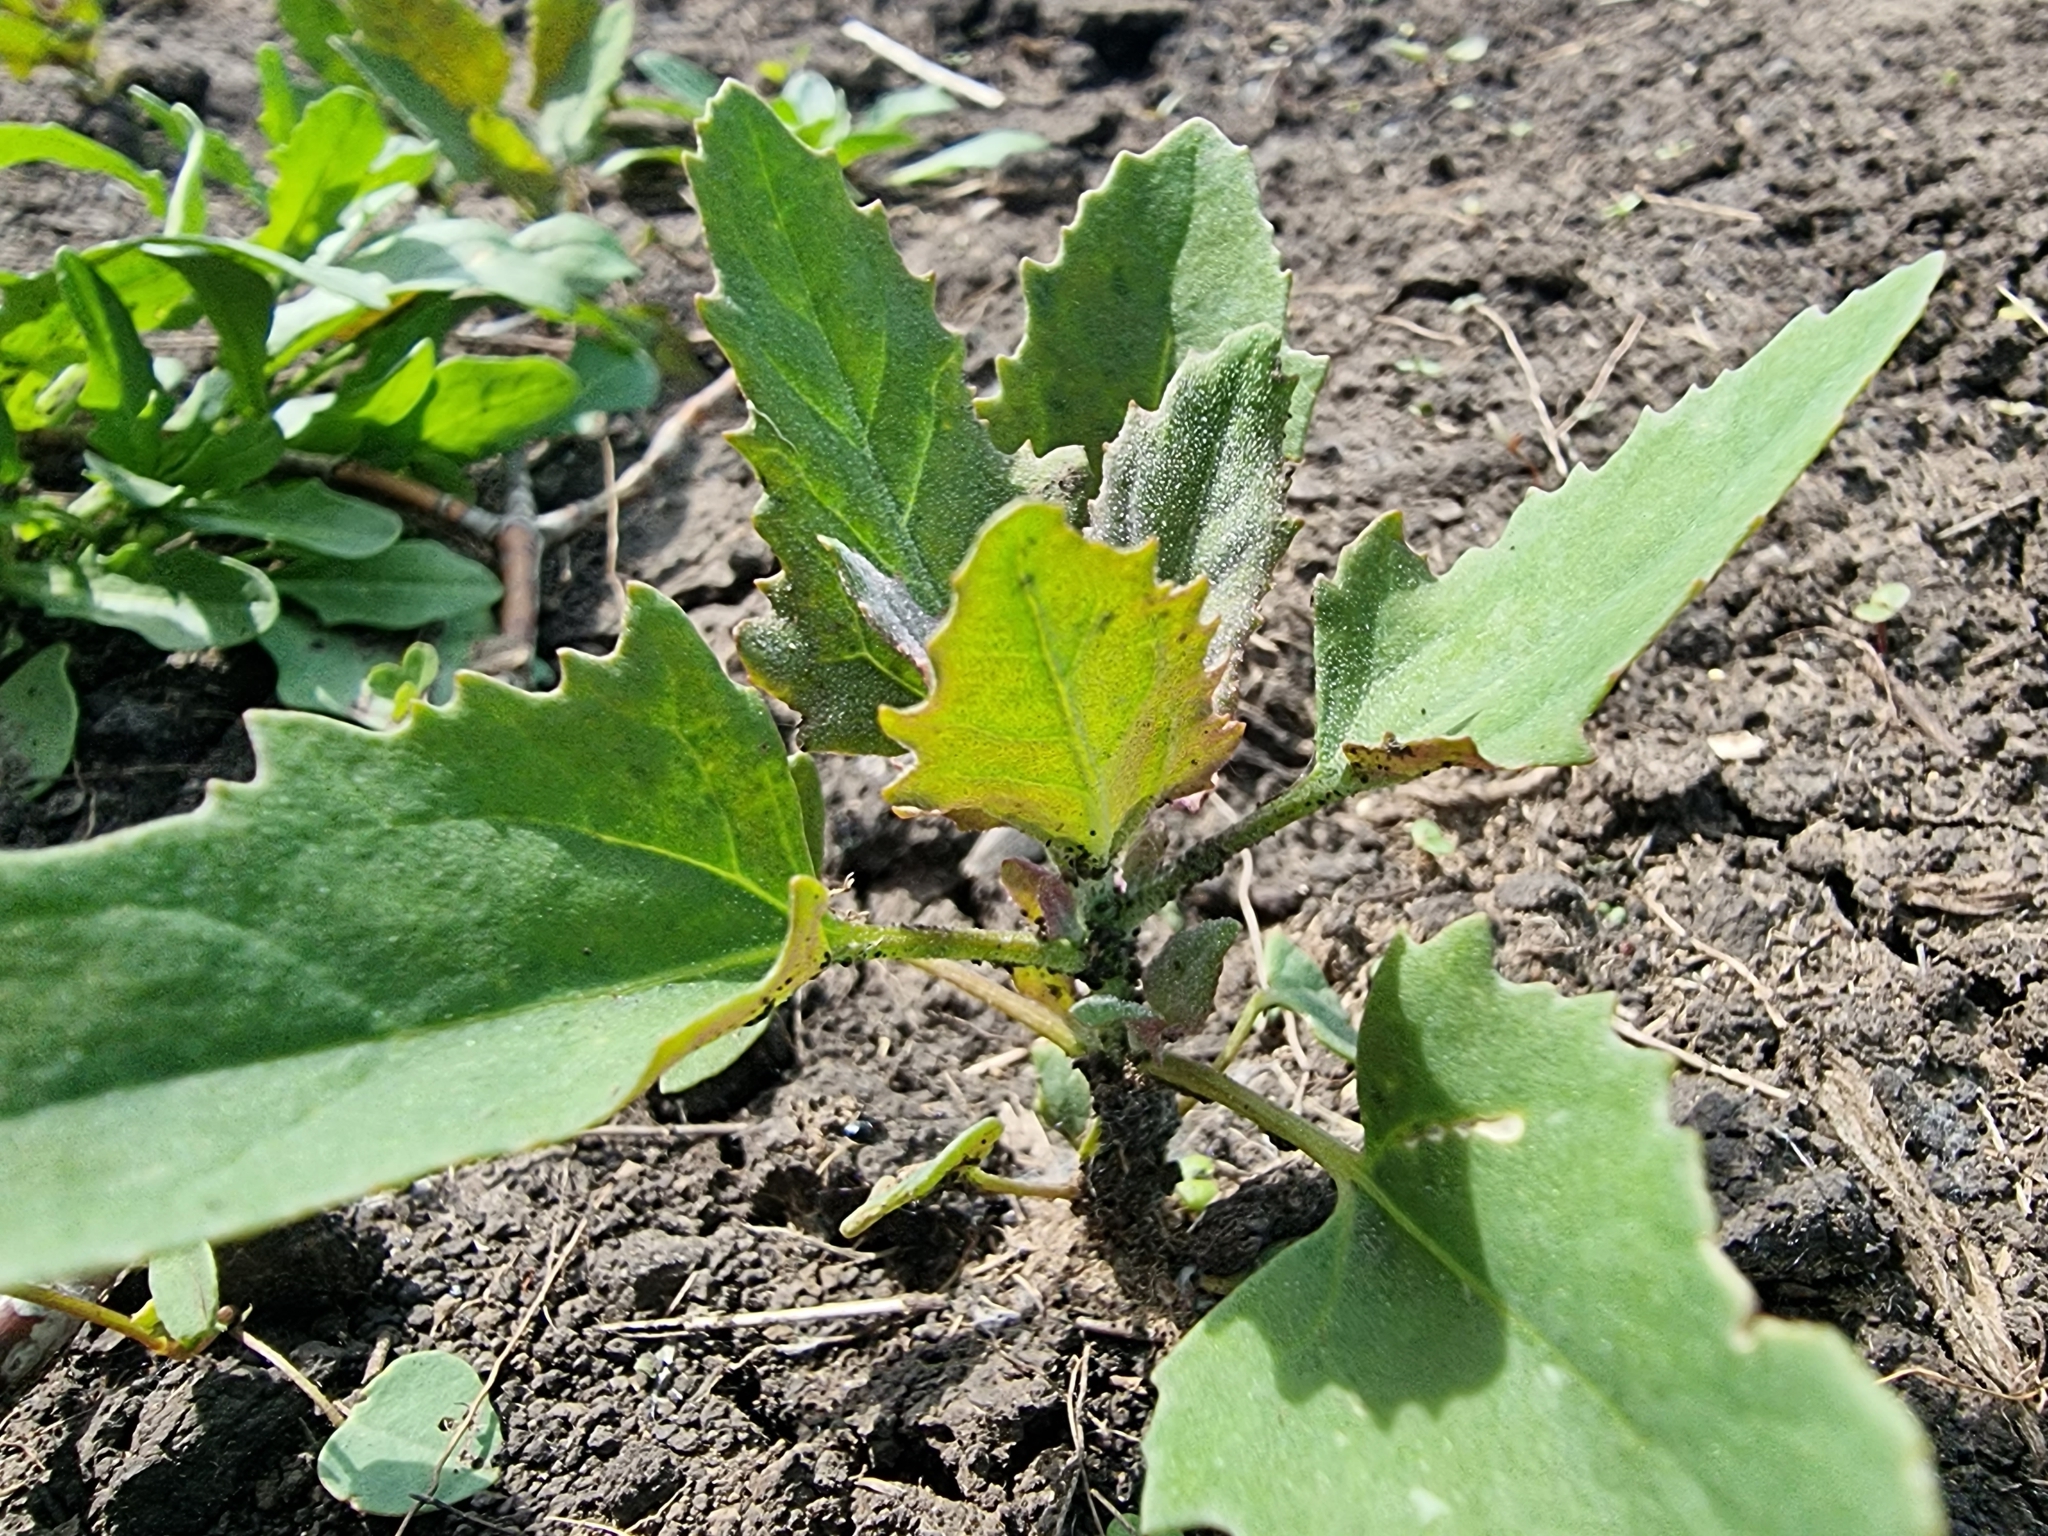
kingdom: Plantae
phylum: Tracheophyta
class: Magnoliopsida
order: Caryophyllales
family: Amaranthaceae
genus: Chenopodium
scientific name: Chenopodium album
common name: Fat-hen
